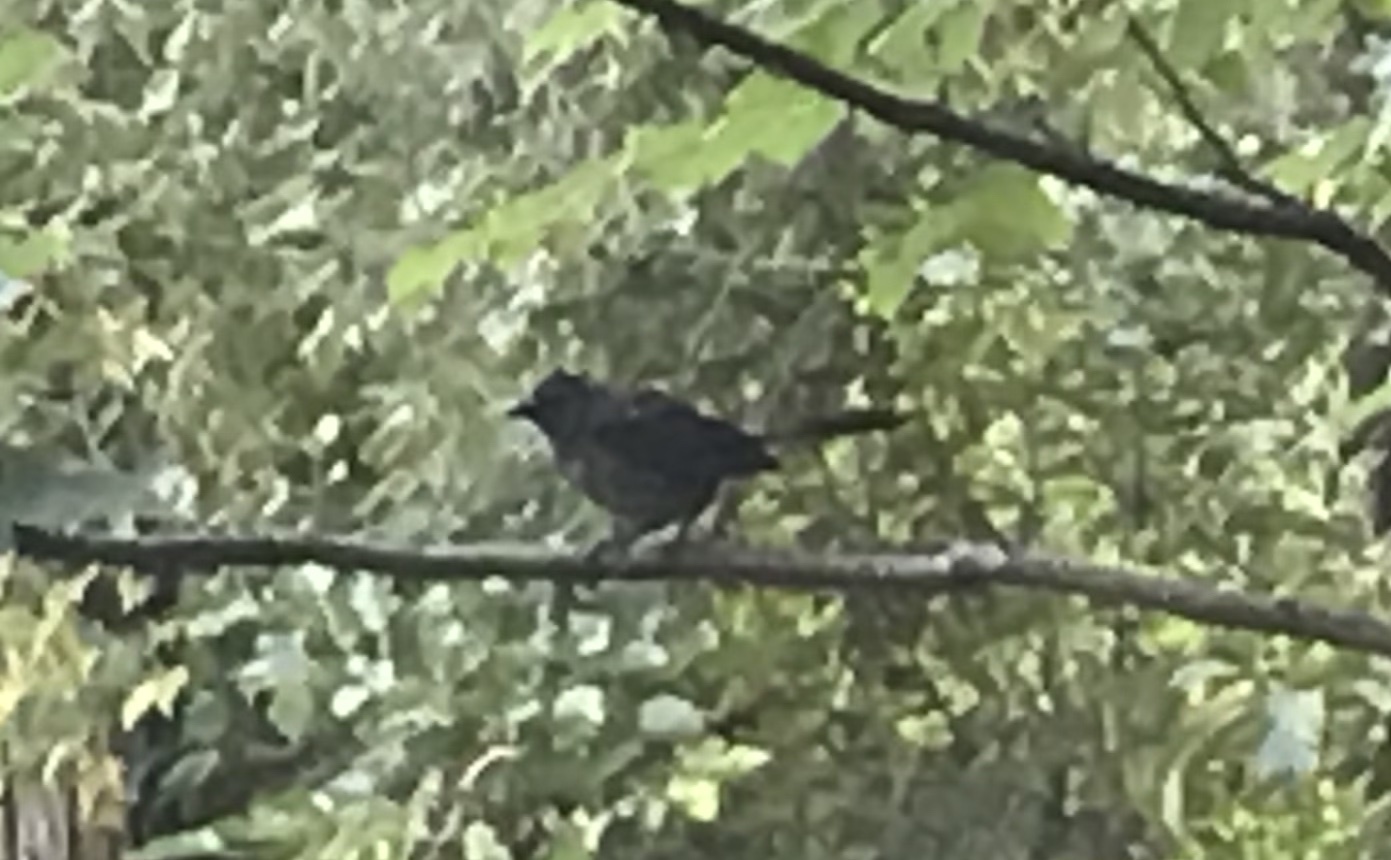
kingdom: Animalia
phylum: Chordata
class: Aves
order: Passeriformes
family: Mimidae
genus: Dumetella
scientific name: Dumetella carolinensis
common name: Gray catbird
